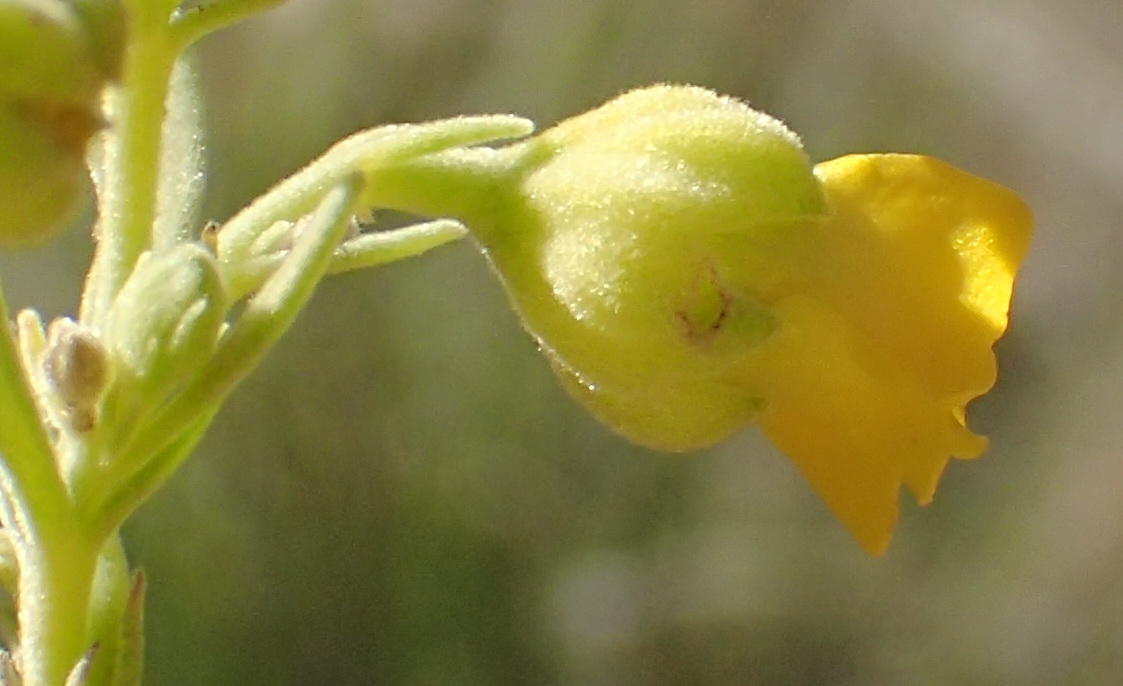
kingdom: Plantae
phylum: Tracheophyta
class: Magnoliopsida
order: Malvales
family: Malvaceae
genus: Hermannia
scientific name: Hermannia odorata
